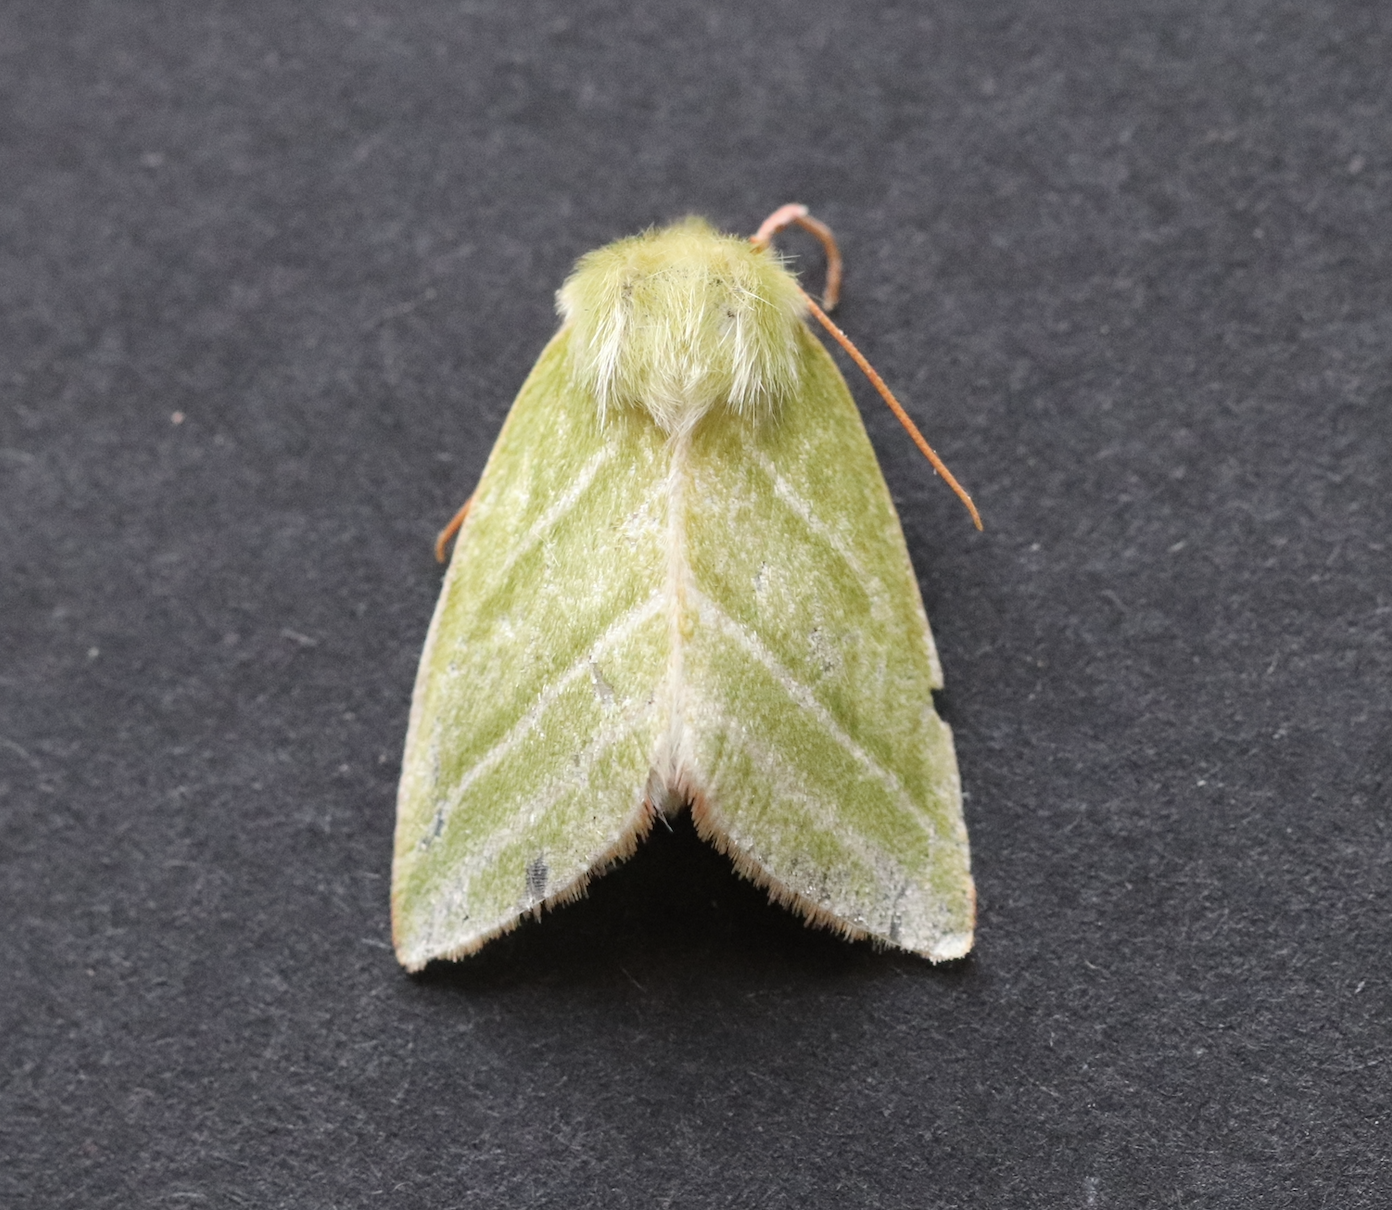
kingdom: Animalia
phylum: Arthropoda
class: Insecta
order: Lepidoptera
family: Nolidae
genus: Pseudoips
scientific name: Pseudoips prasinana
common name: Green silver-lines
